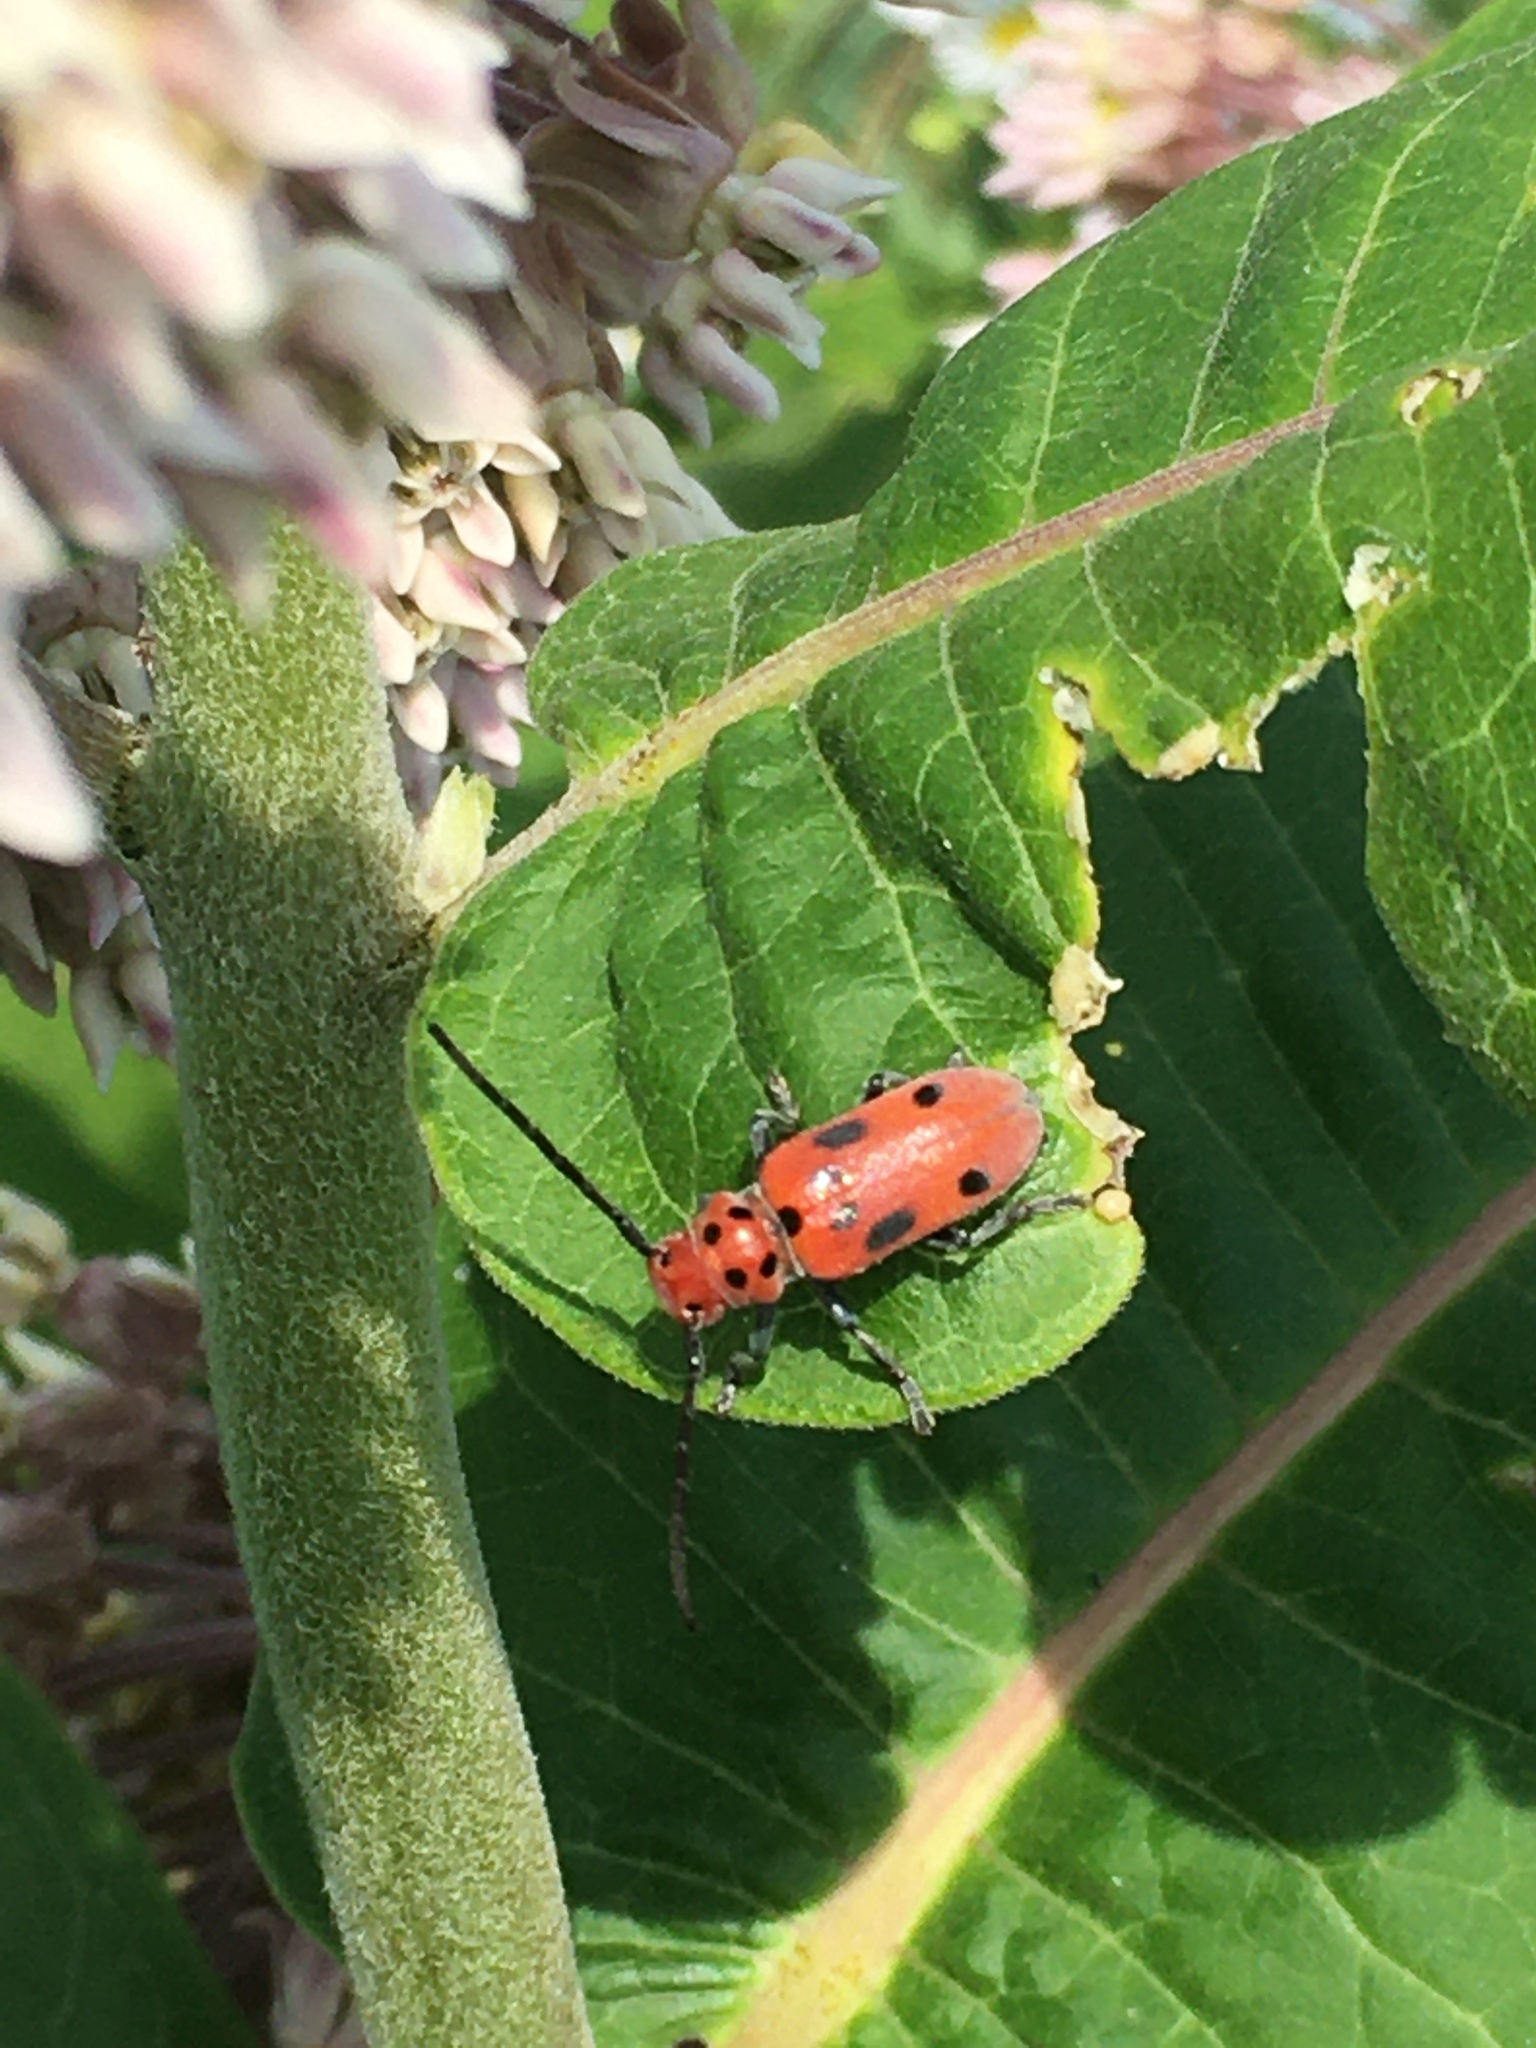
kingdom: Animalia
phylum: Arthropoda
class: Insecta
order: Coleoptera
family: Cerambycidae
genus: Tetraopes
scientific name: Tetraopes tetrophthalmus
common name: Red milkweed beetle
